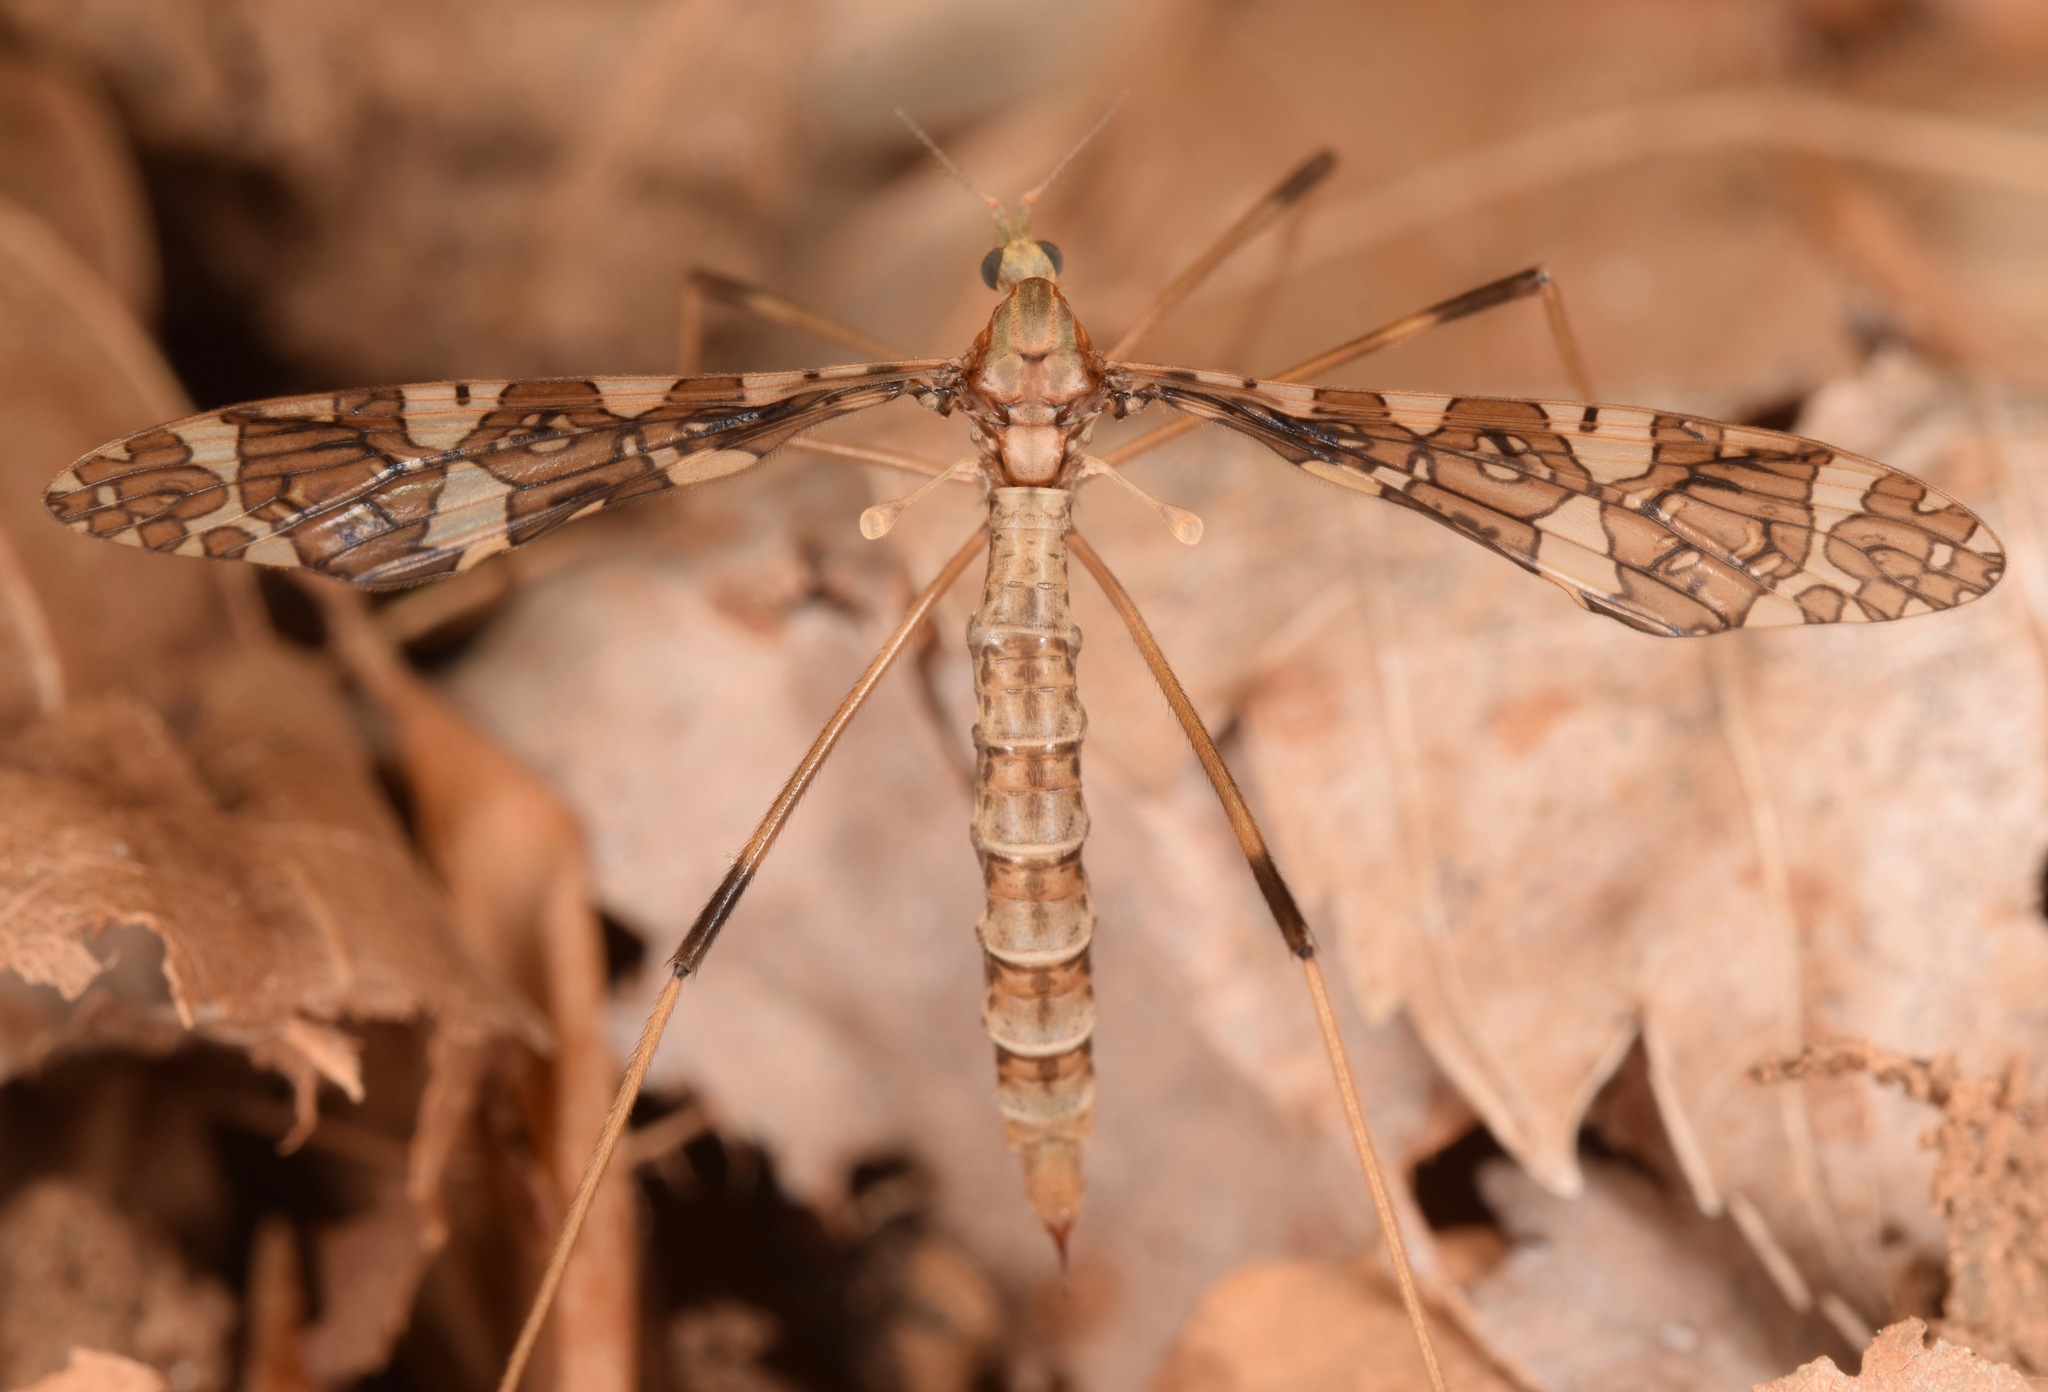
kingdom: Animalia
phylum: Arthropoda
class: Insecta
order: Diptera
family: Limoniidae
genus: Epiphragma
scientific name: Epiphragma fasciapenne
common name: Band-winged crane fly
